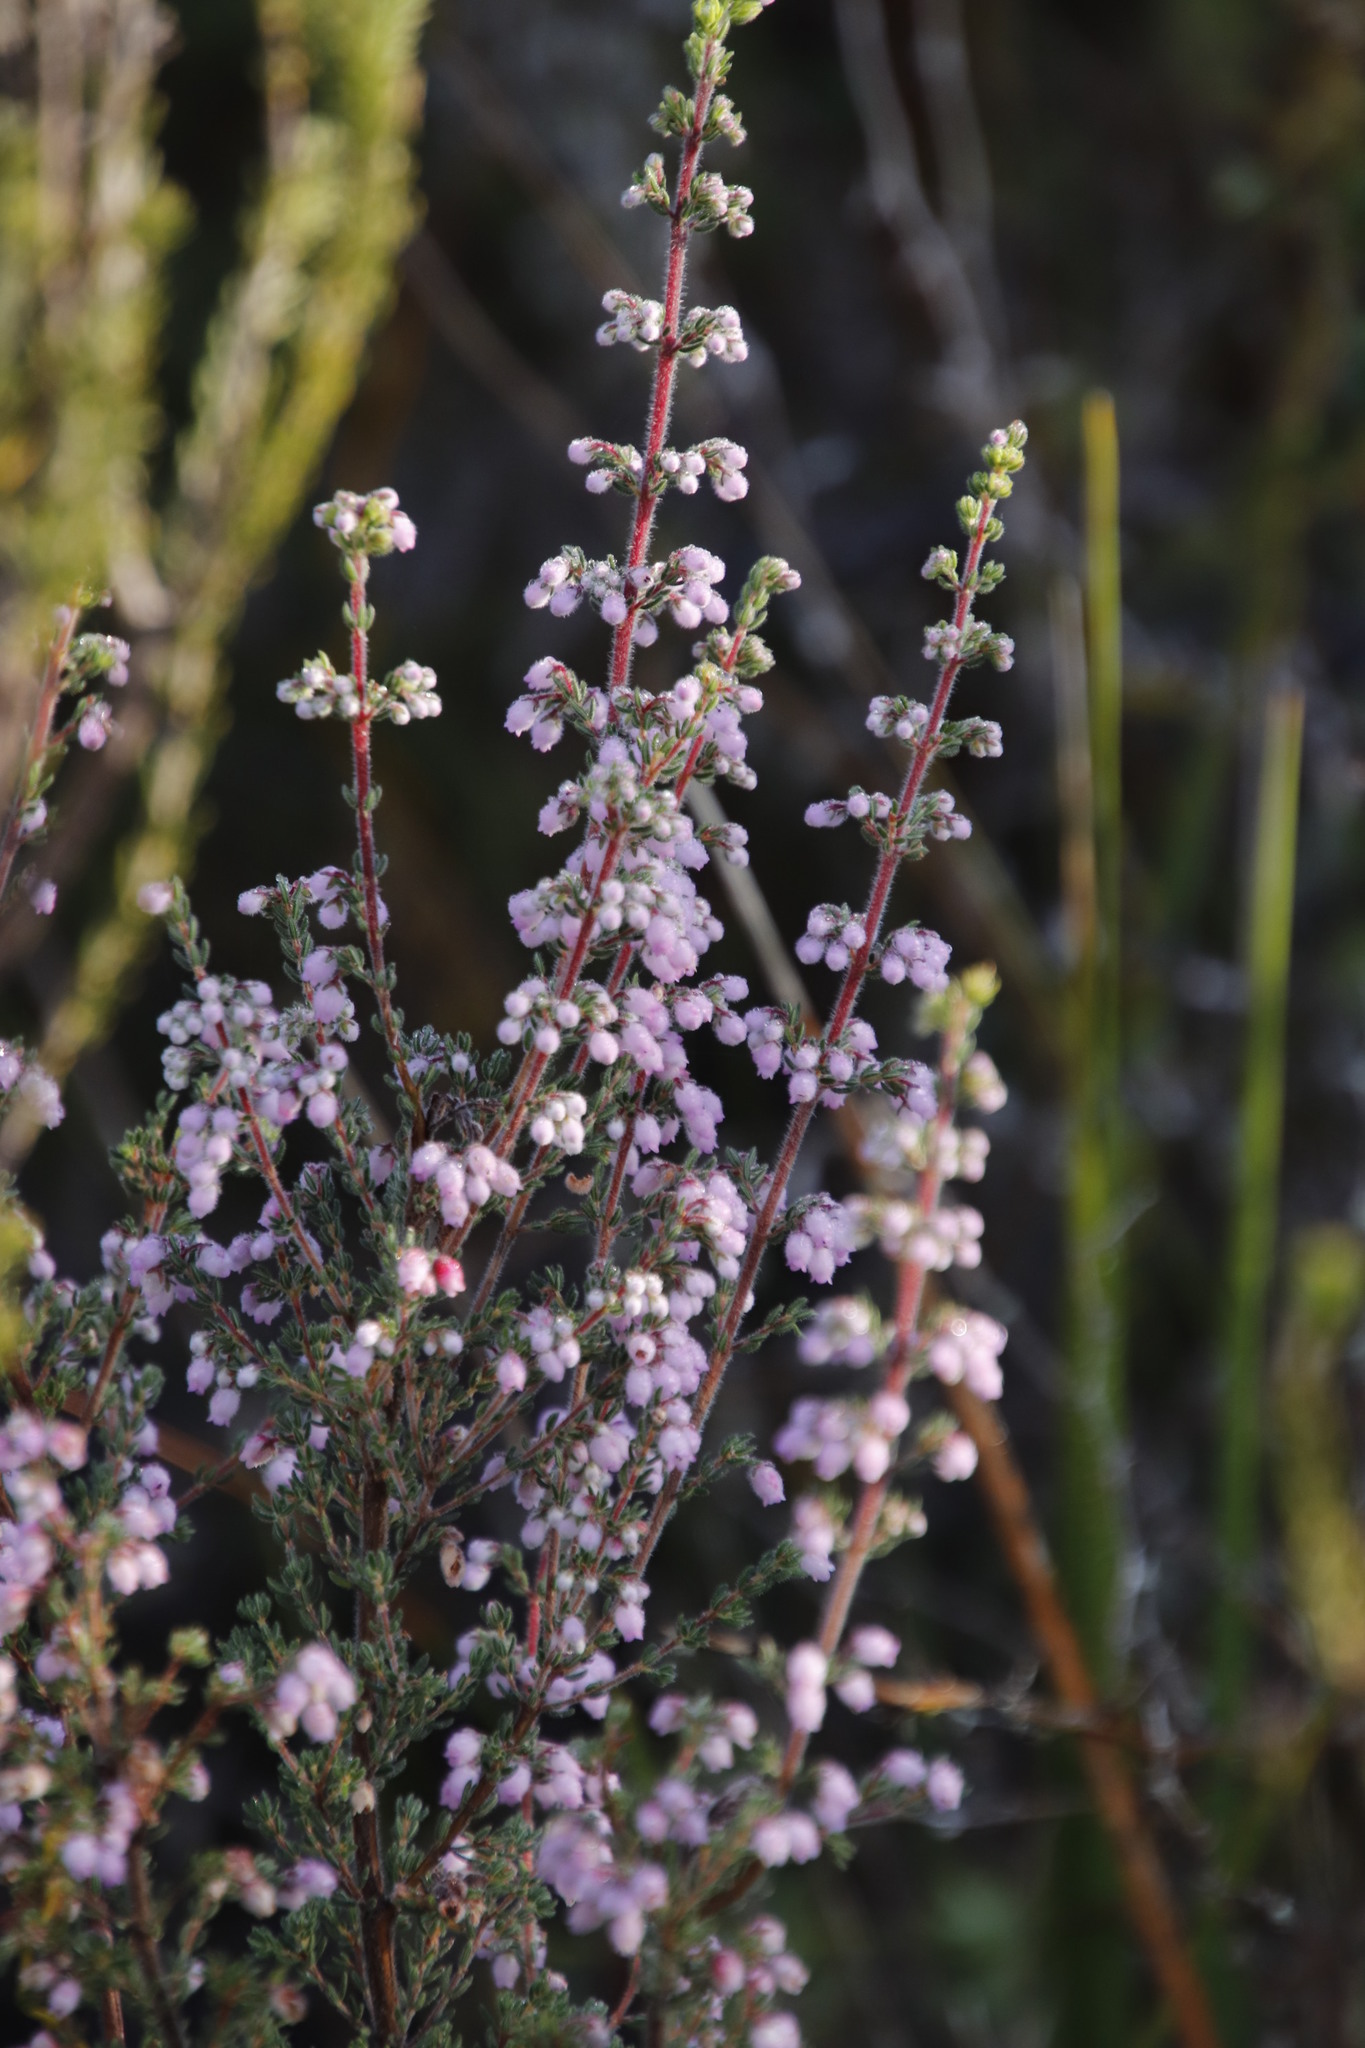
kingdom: Plantae
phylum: Tracheophyta
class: Magnoliopsida
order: Ericales
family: Ericaceae
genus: Erica
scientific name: Erica hirtiflora
